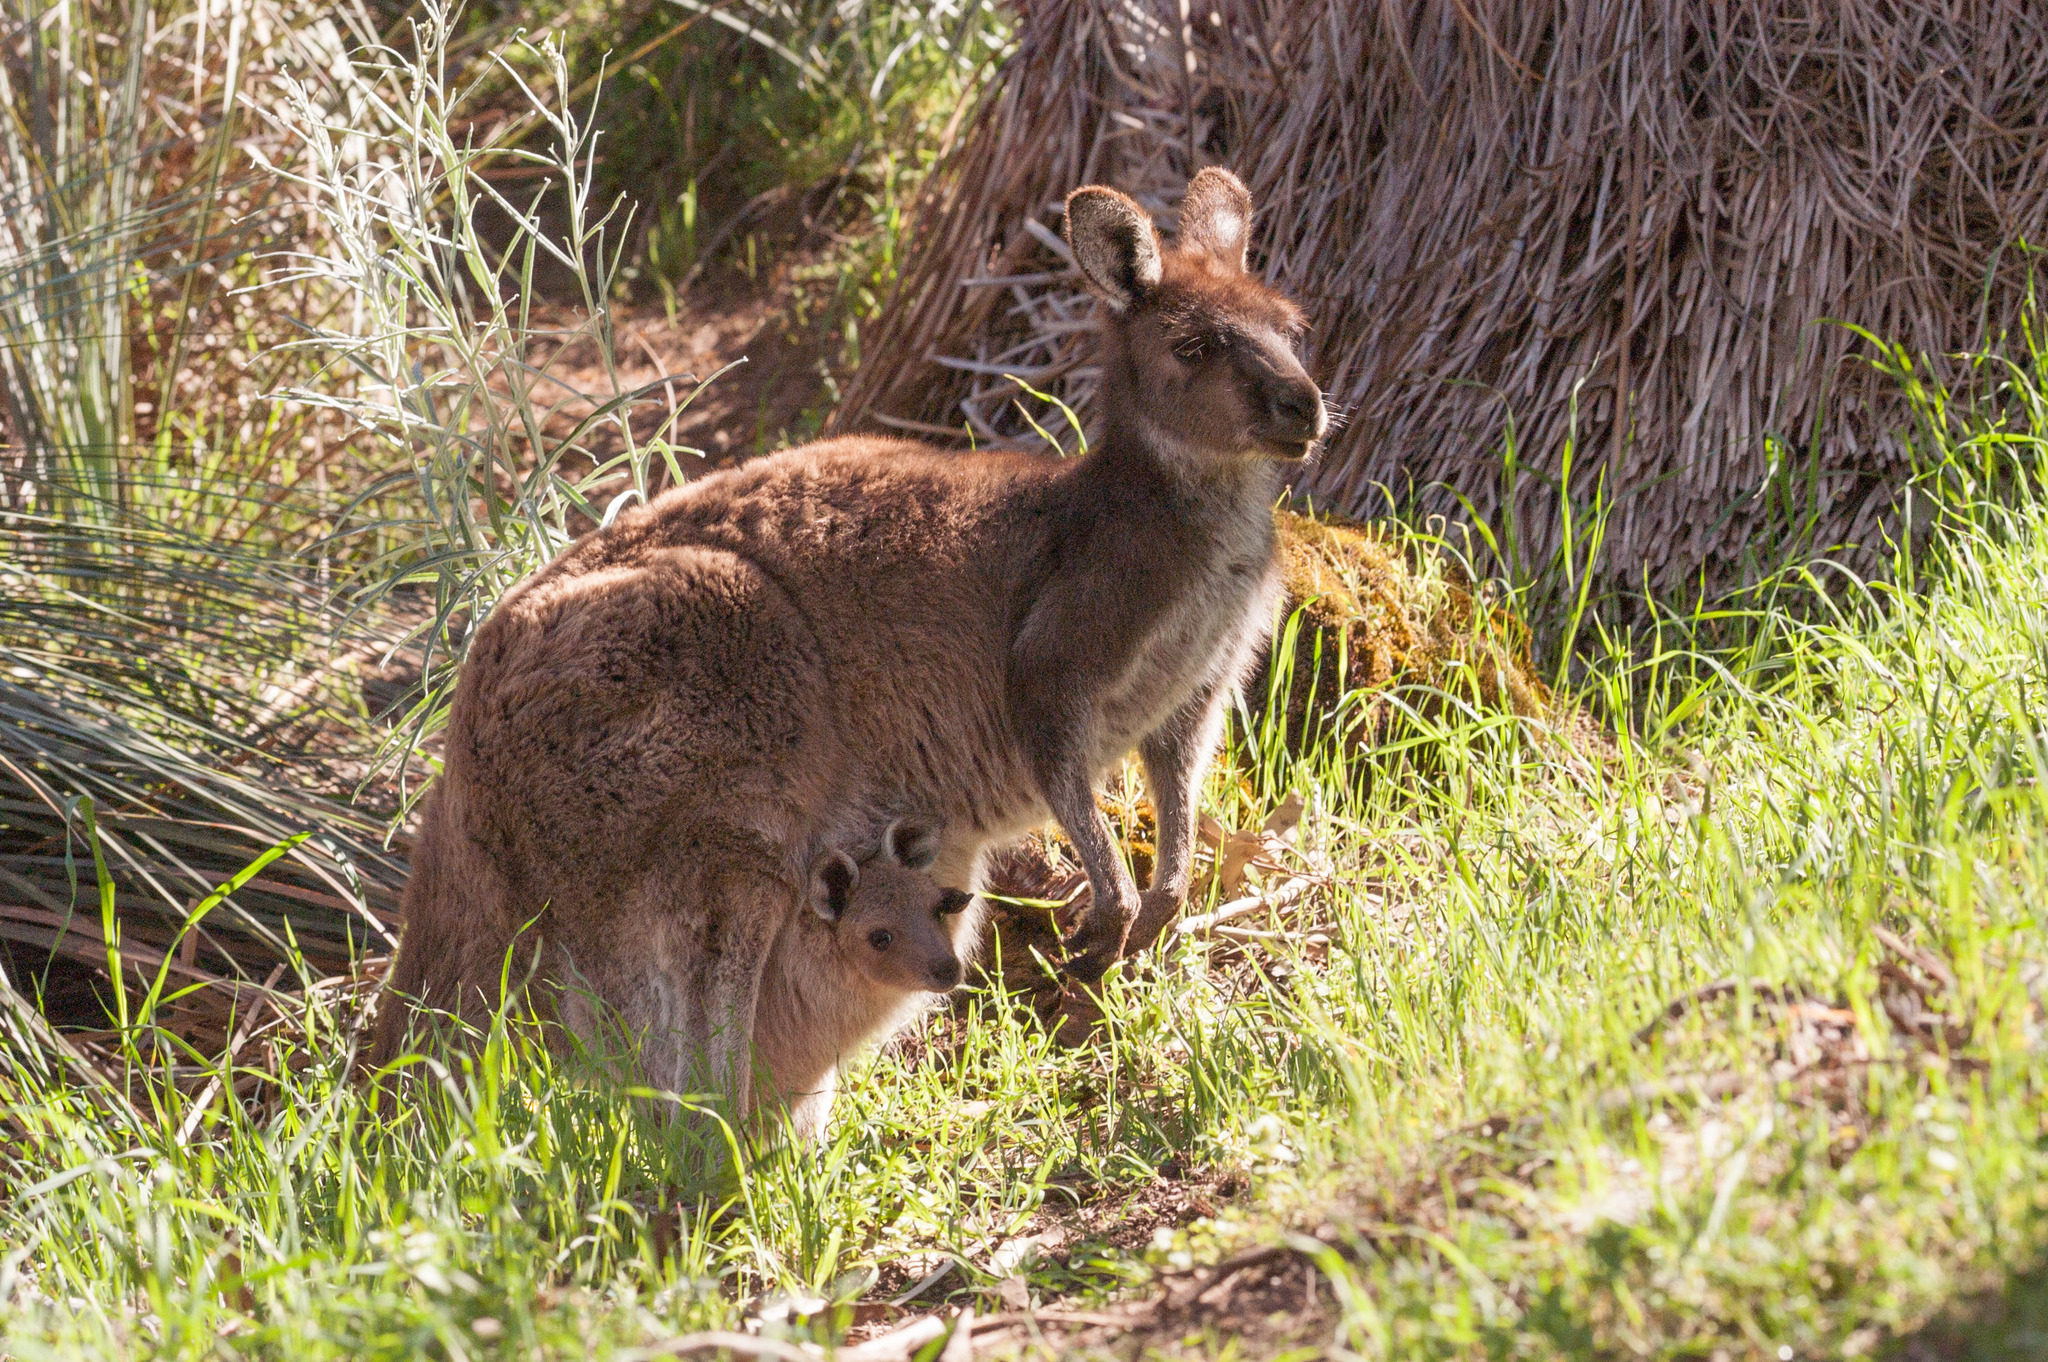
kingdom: Animalia
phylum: Chordata
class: Mammalia
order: Diprotodontia
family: Macropodidae
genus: Macropus
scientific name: Macropus fuliginosus
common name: Western grey kangaroo
